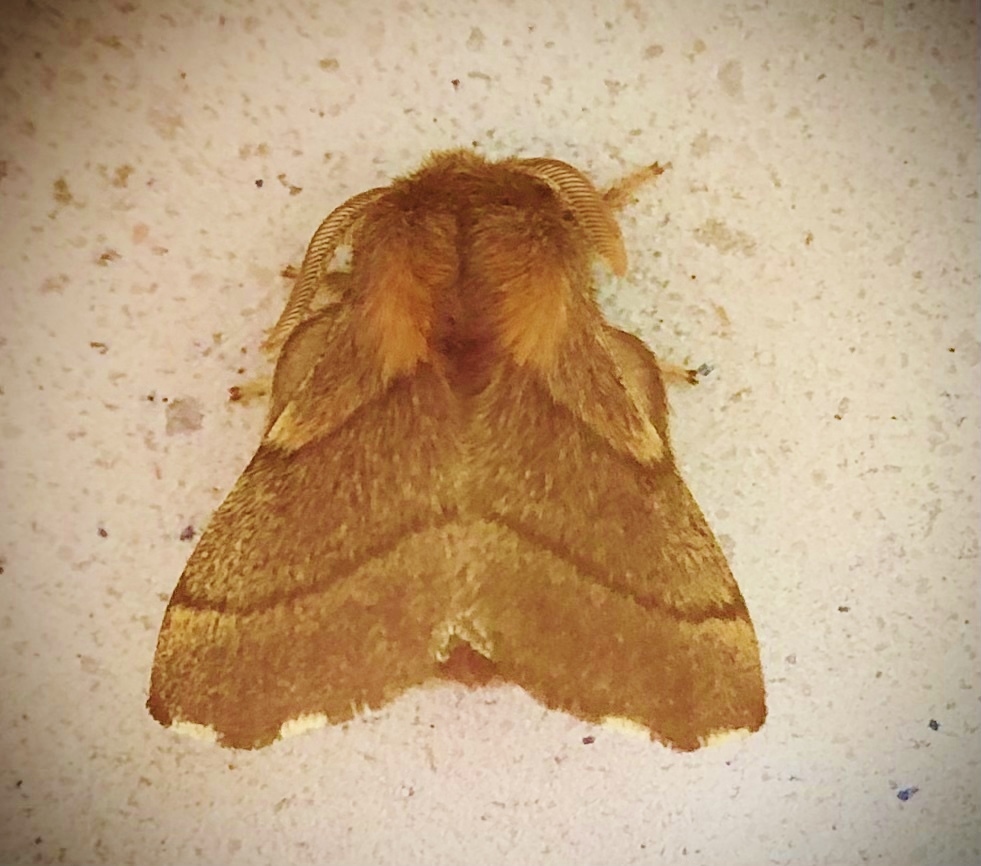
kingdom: Animalia
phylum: Arthropoda
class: Insecta
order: Lepidoptera
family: Lasiocampidae
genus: Malacosoma
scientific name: Malacosoma disstria
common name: Forest tent caterpillar
